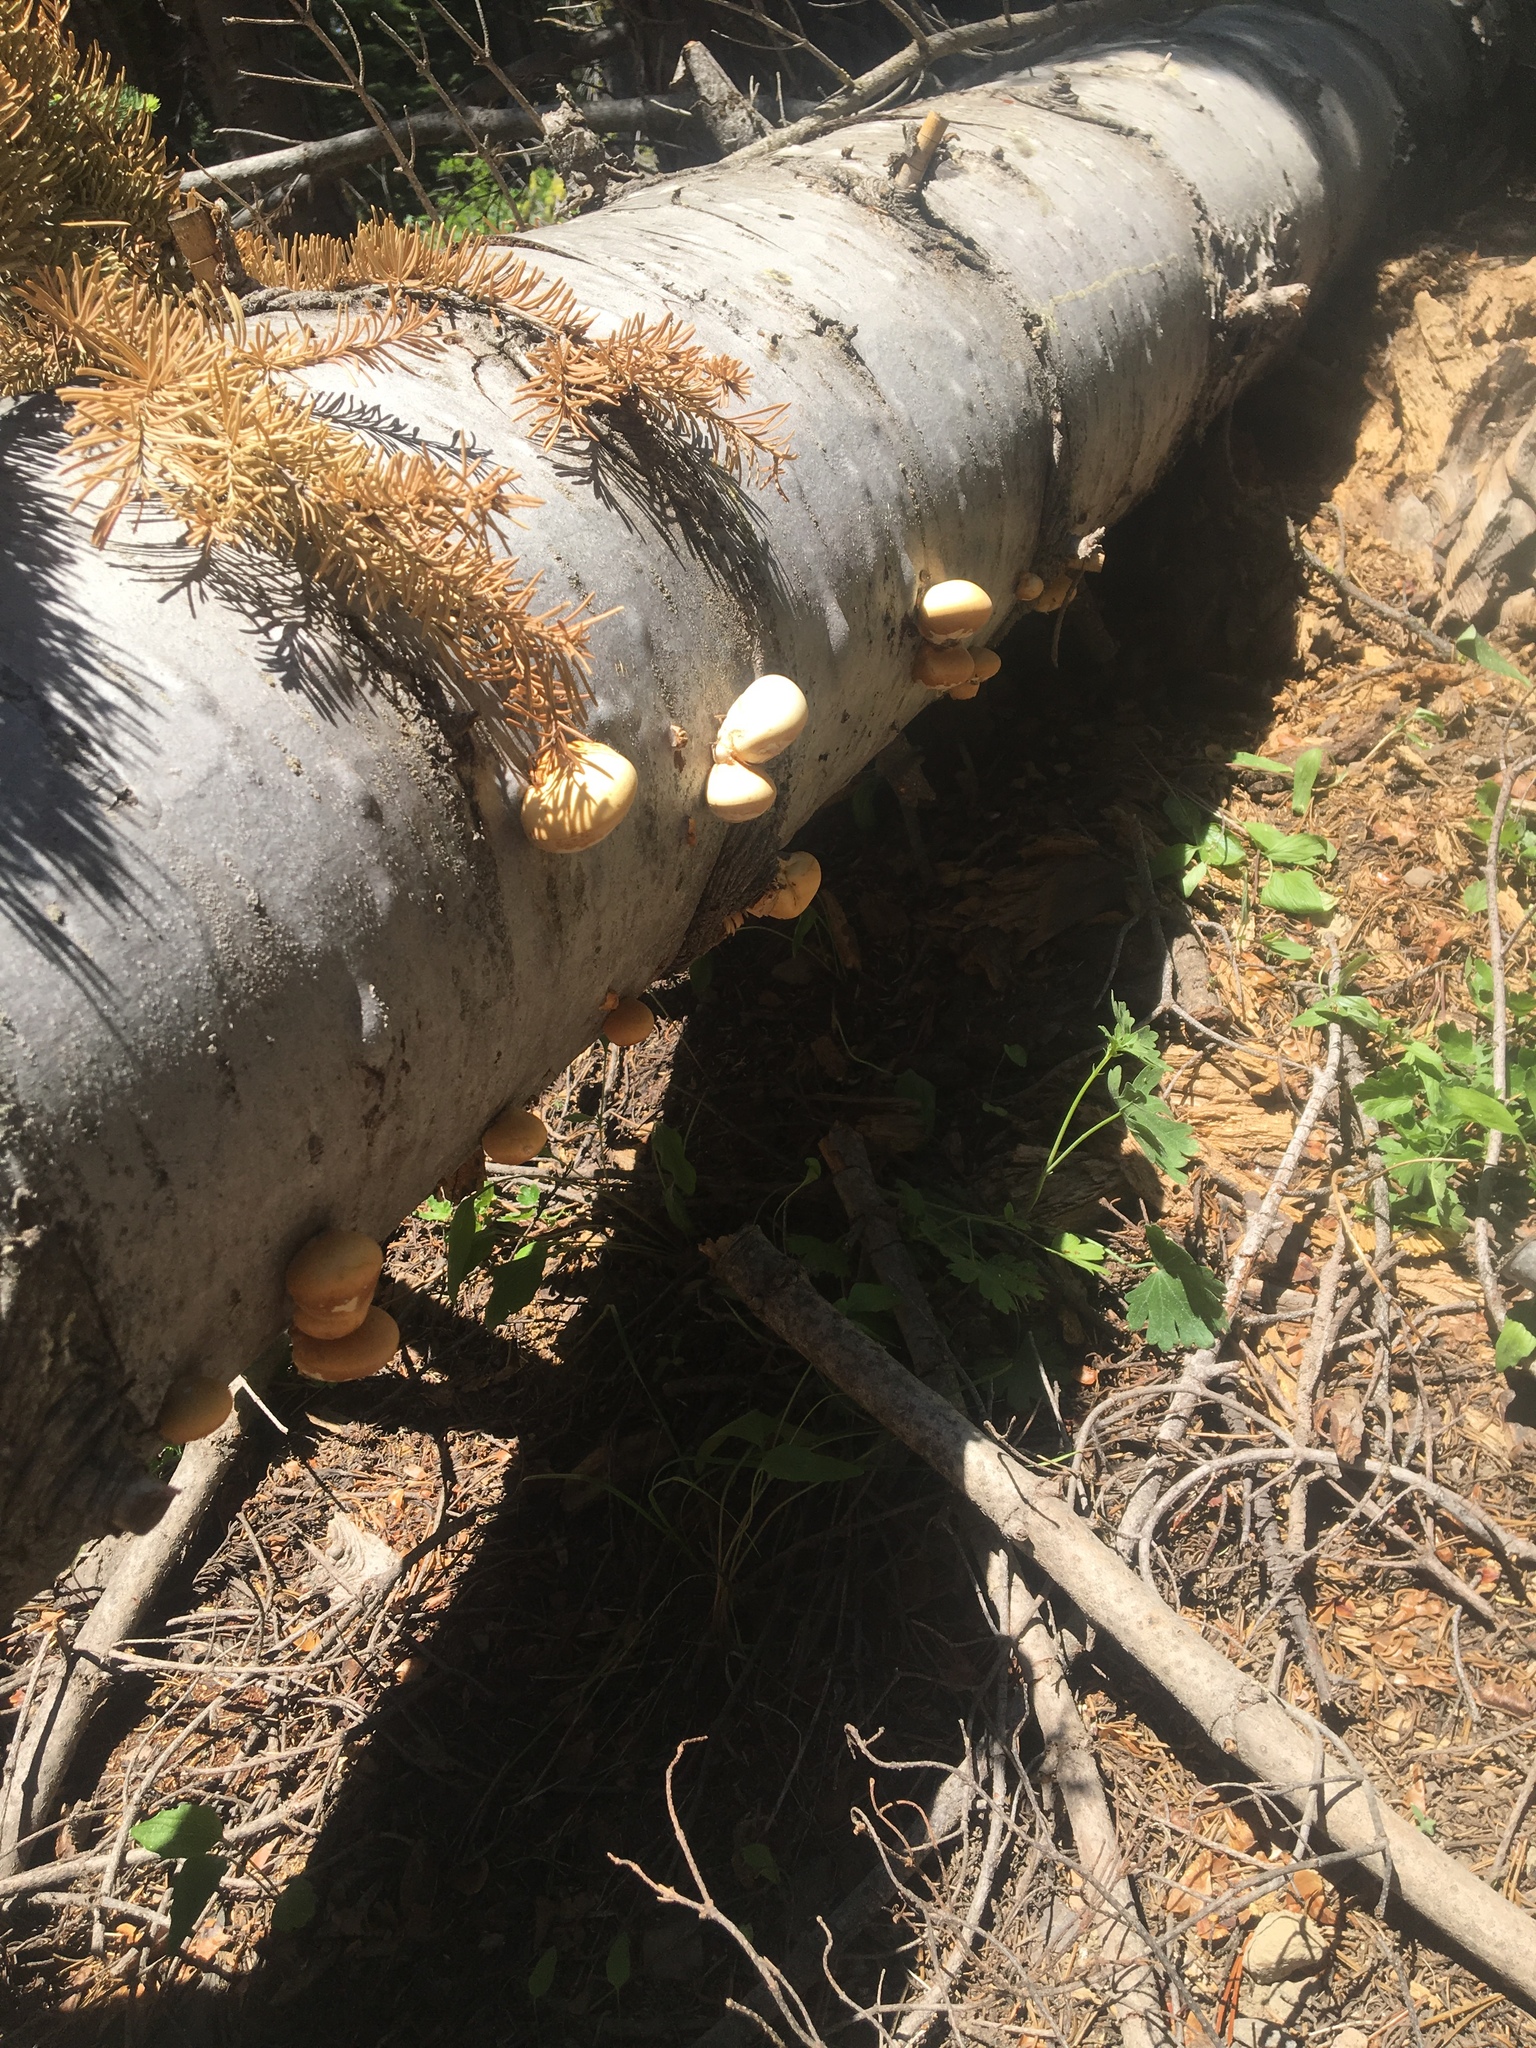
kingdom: Fungi
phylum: Basidiomycota
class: Agaricomycetes
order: Polyporales
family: Polyporaceae
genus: Cryptoporus
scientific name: Cryptoporus volvatus
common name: Veiled polypore
